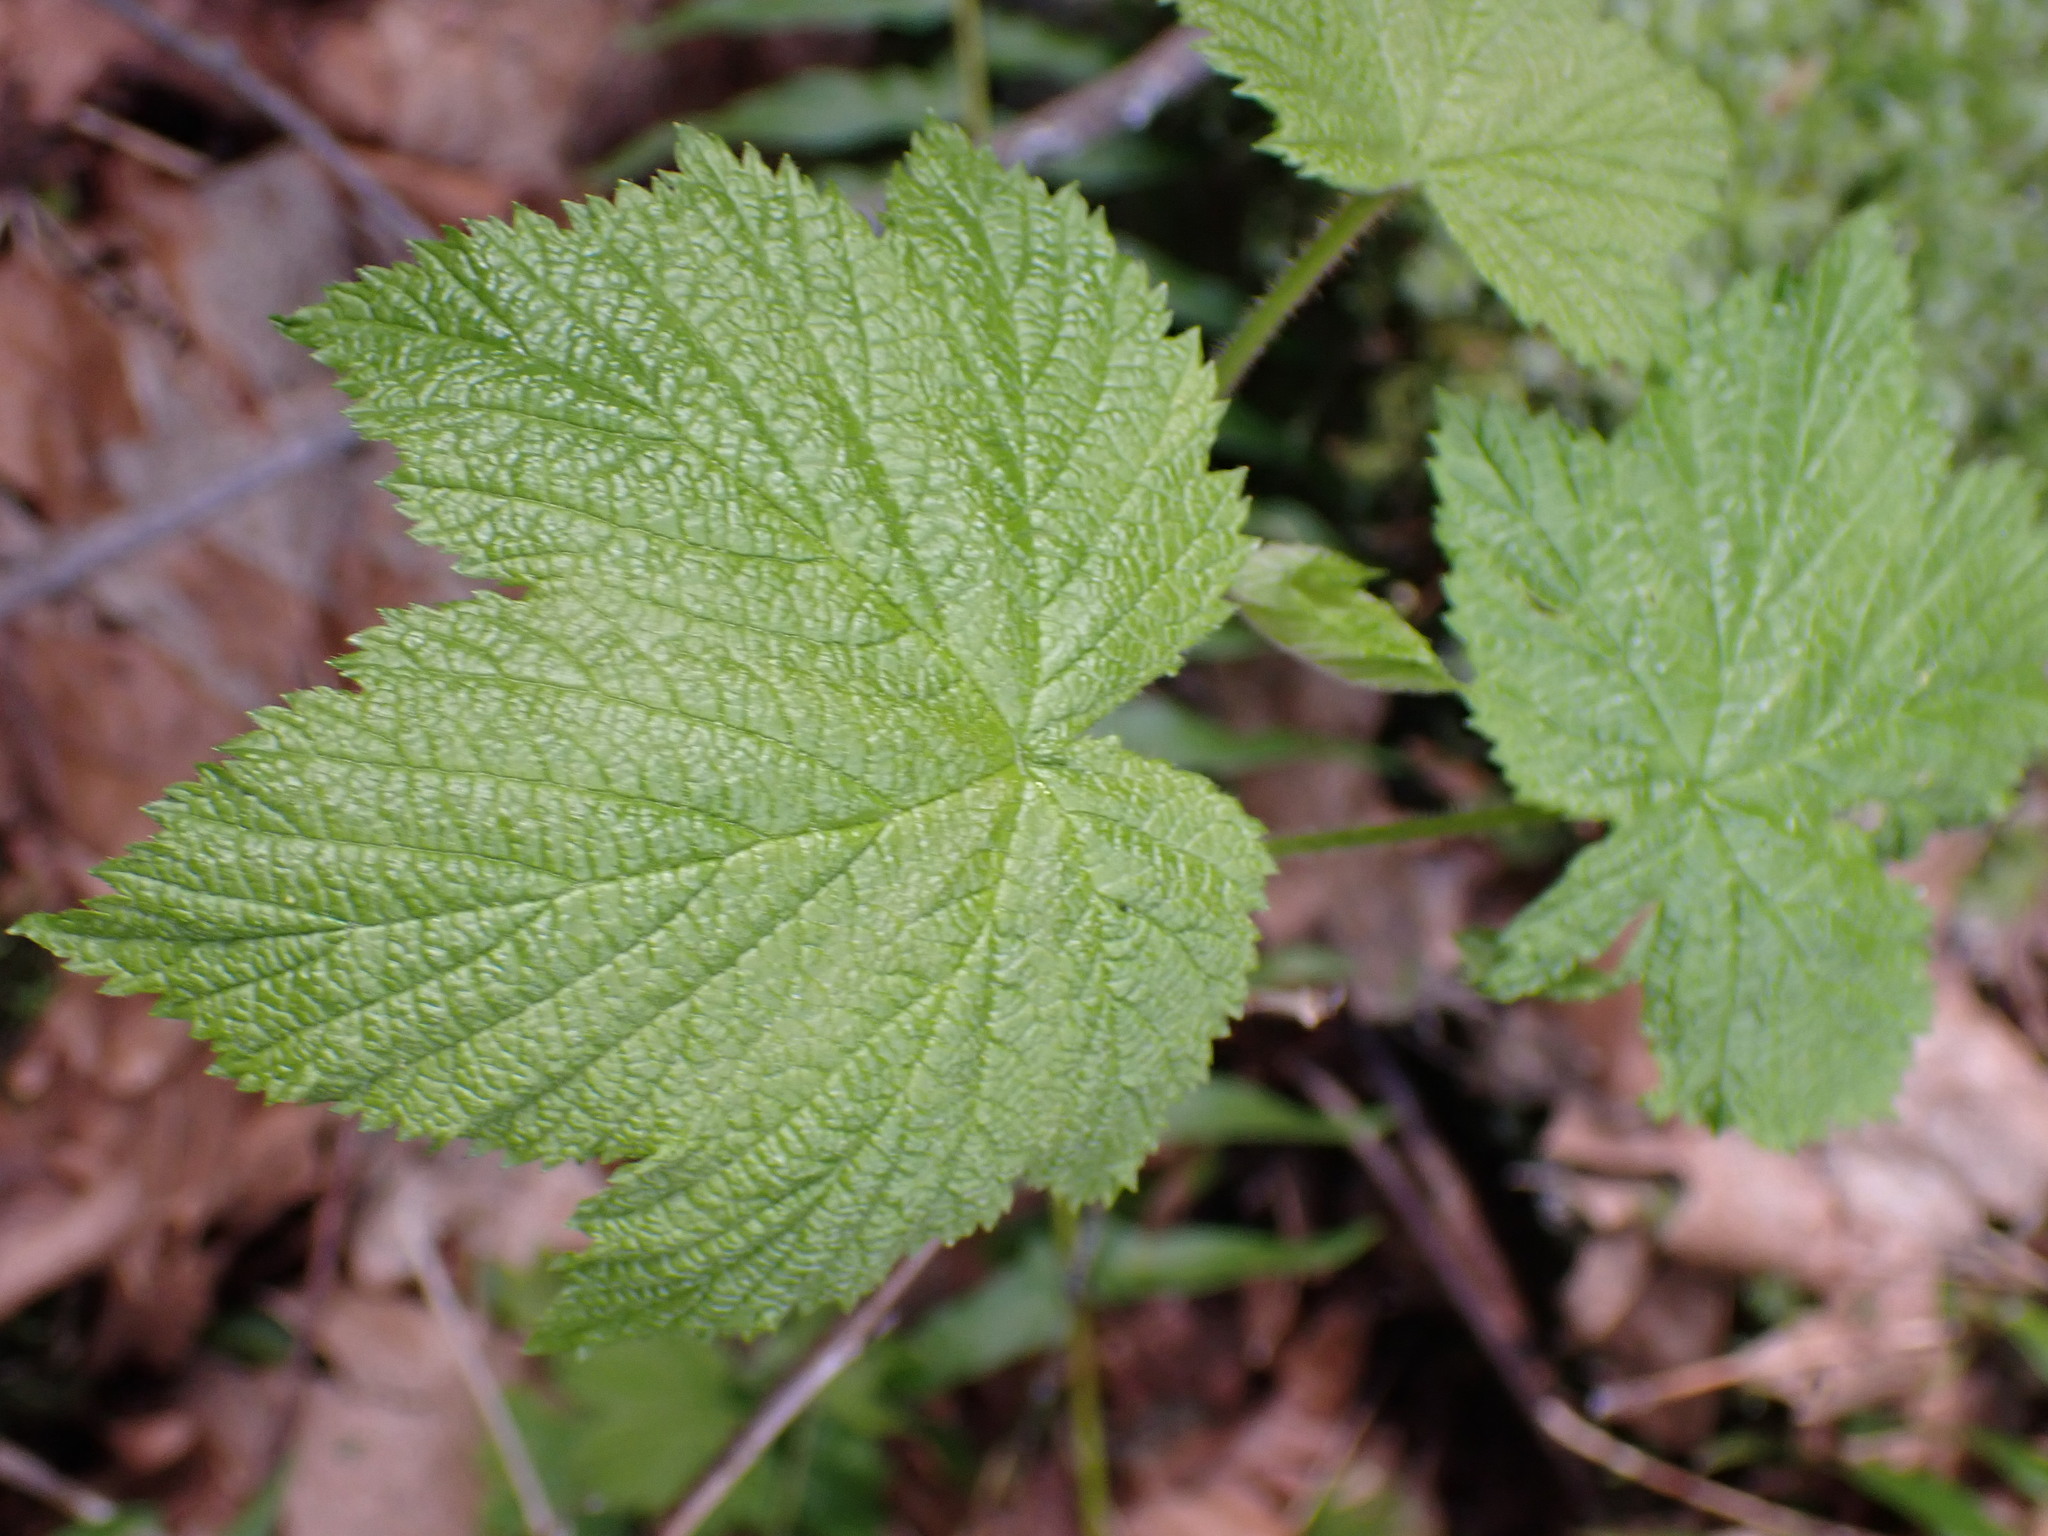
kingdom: Plantae
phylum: Tracheophyta
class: Magnoliopsida
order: Rosales
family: Rosaceae
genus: Rubus
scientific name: Rubus parviflorus
